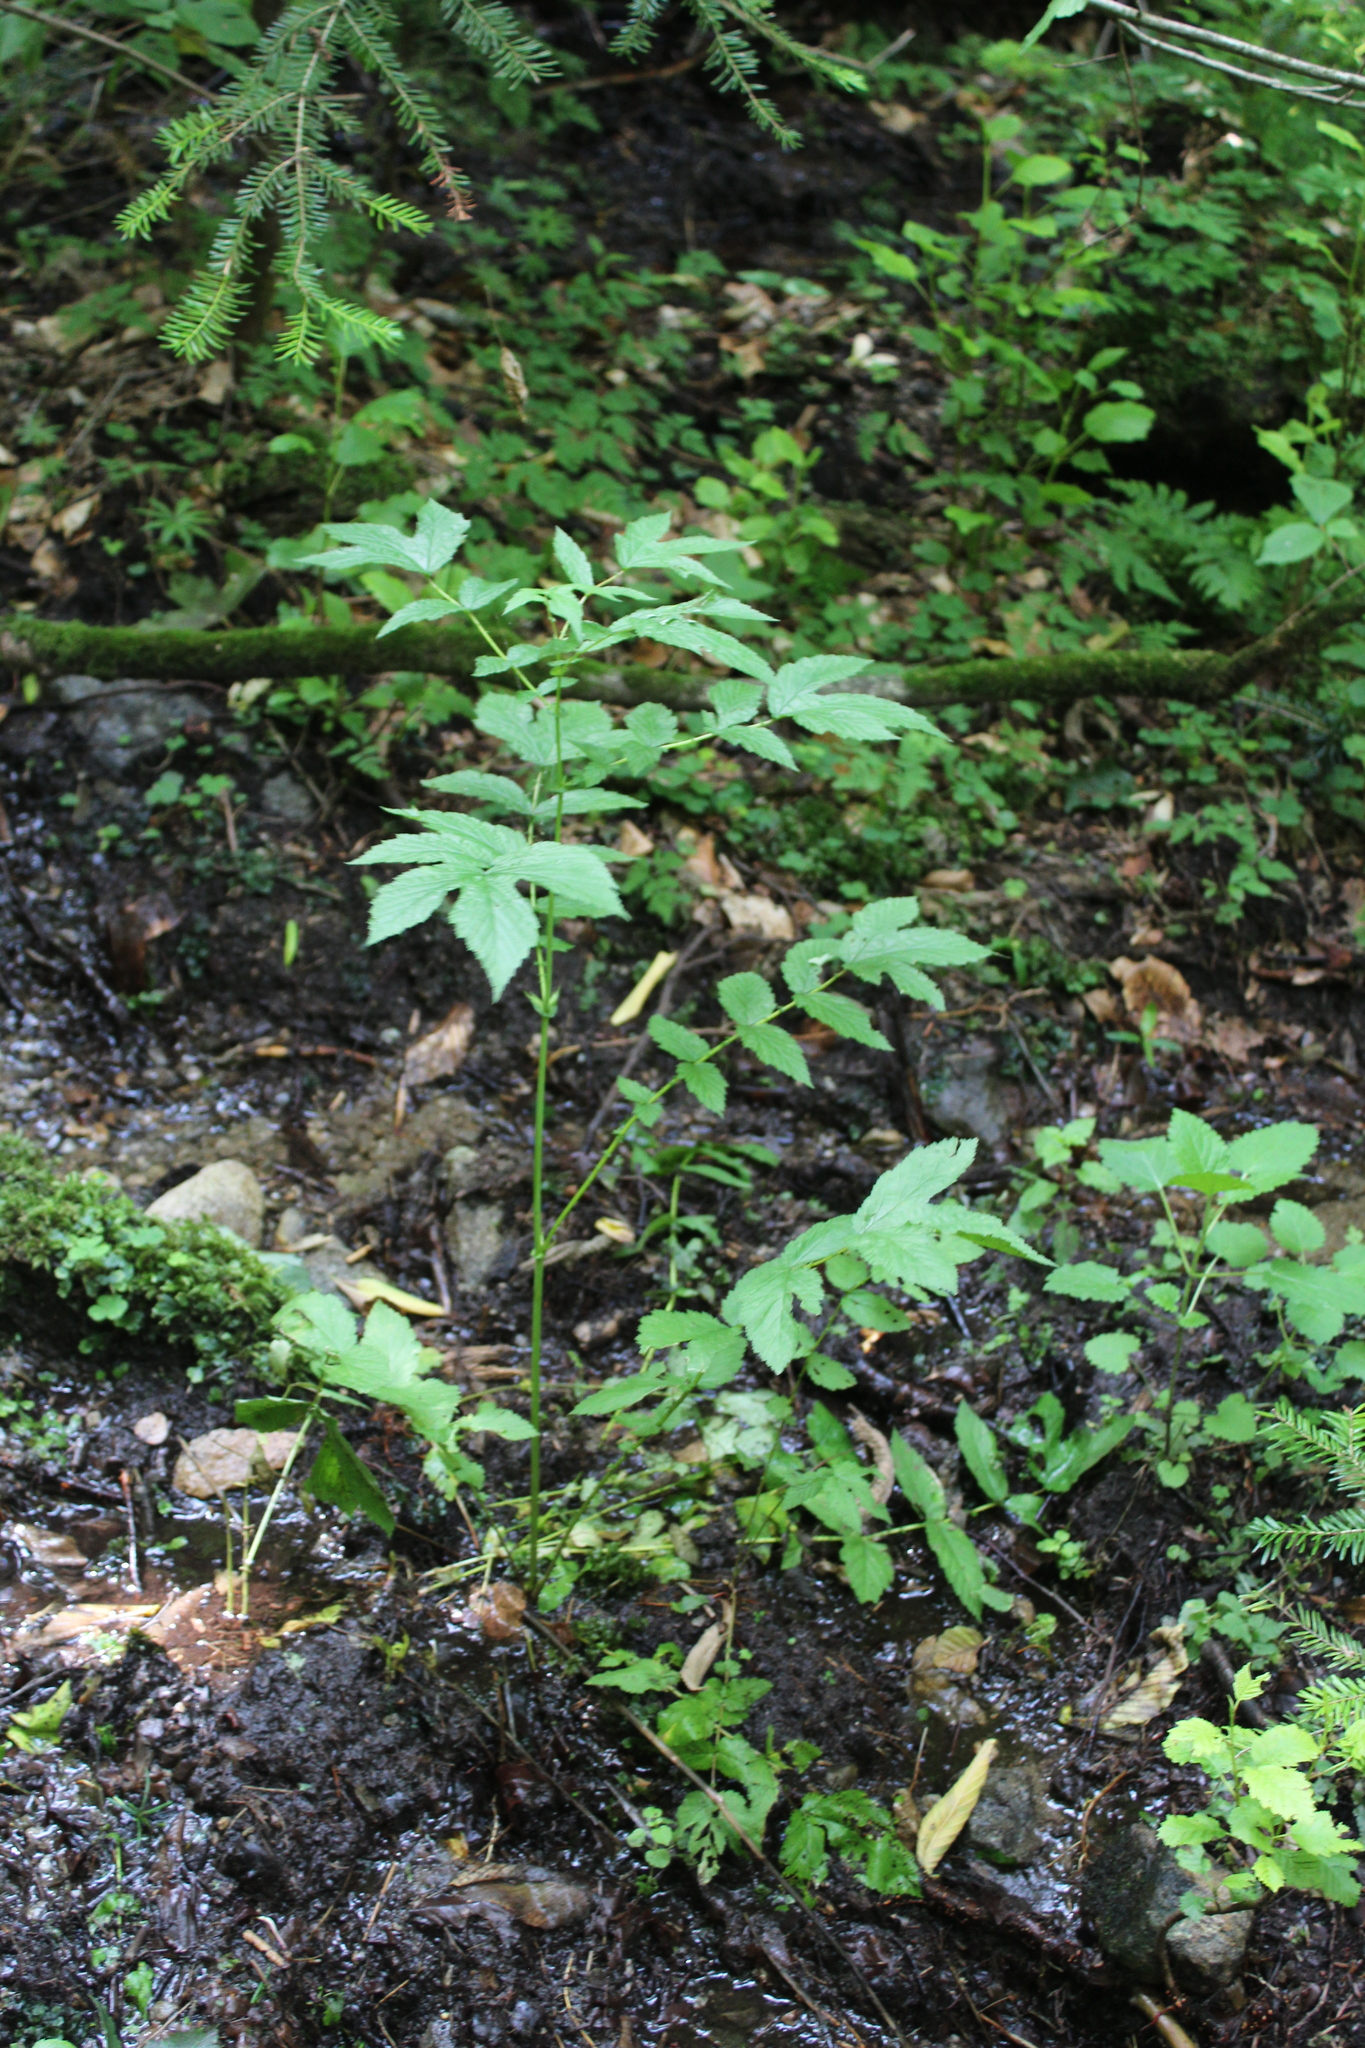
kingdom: Plantae
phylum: Tracheophyta
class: Magnoliopsida
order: Rosales
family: Rosaceae
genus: Filipendula
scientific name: Filipendula ulmaria
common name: Meadowsweet
